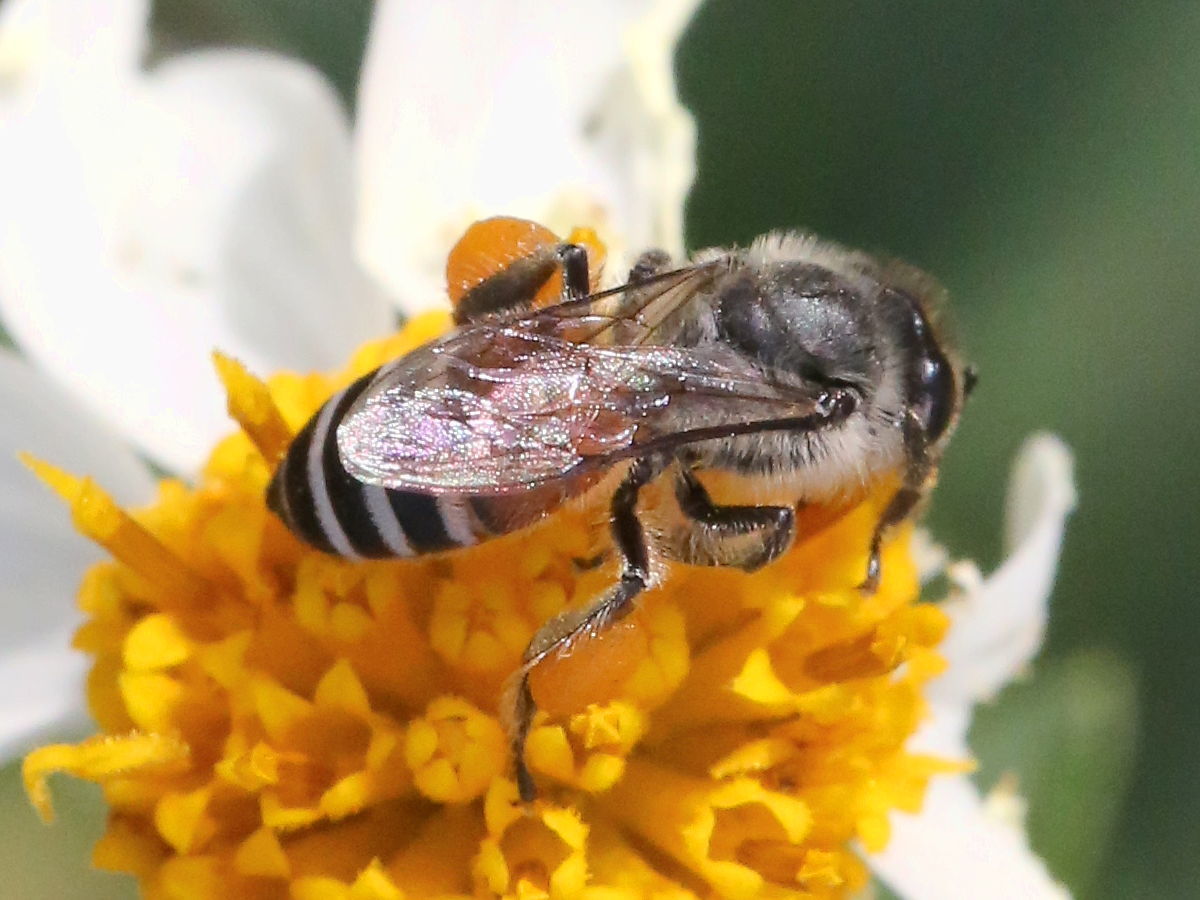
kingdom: Animalia
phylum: Arthropoda
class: Insecta
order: Hymenoptera
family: Apidae
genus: Apis
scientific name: Apis florea
